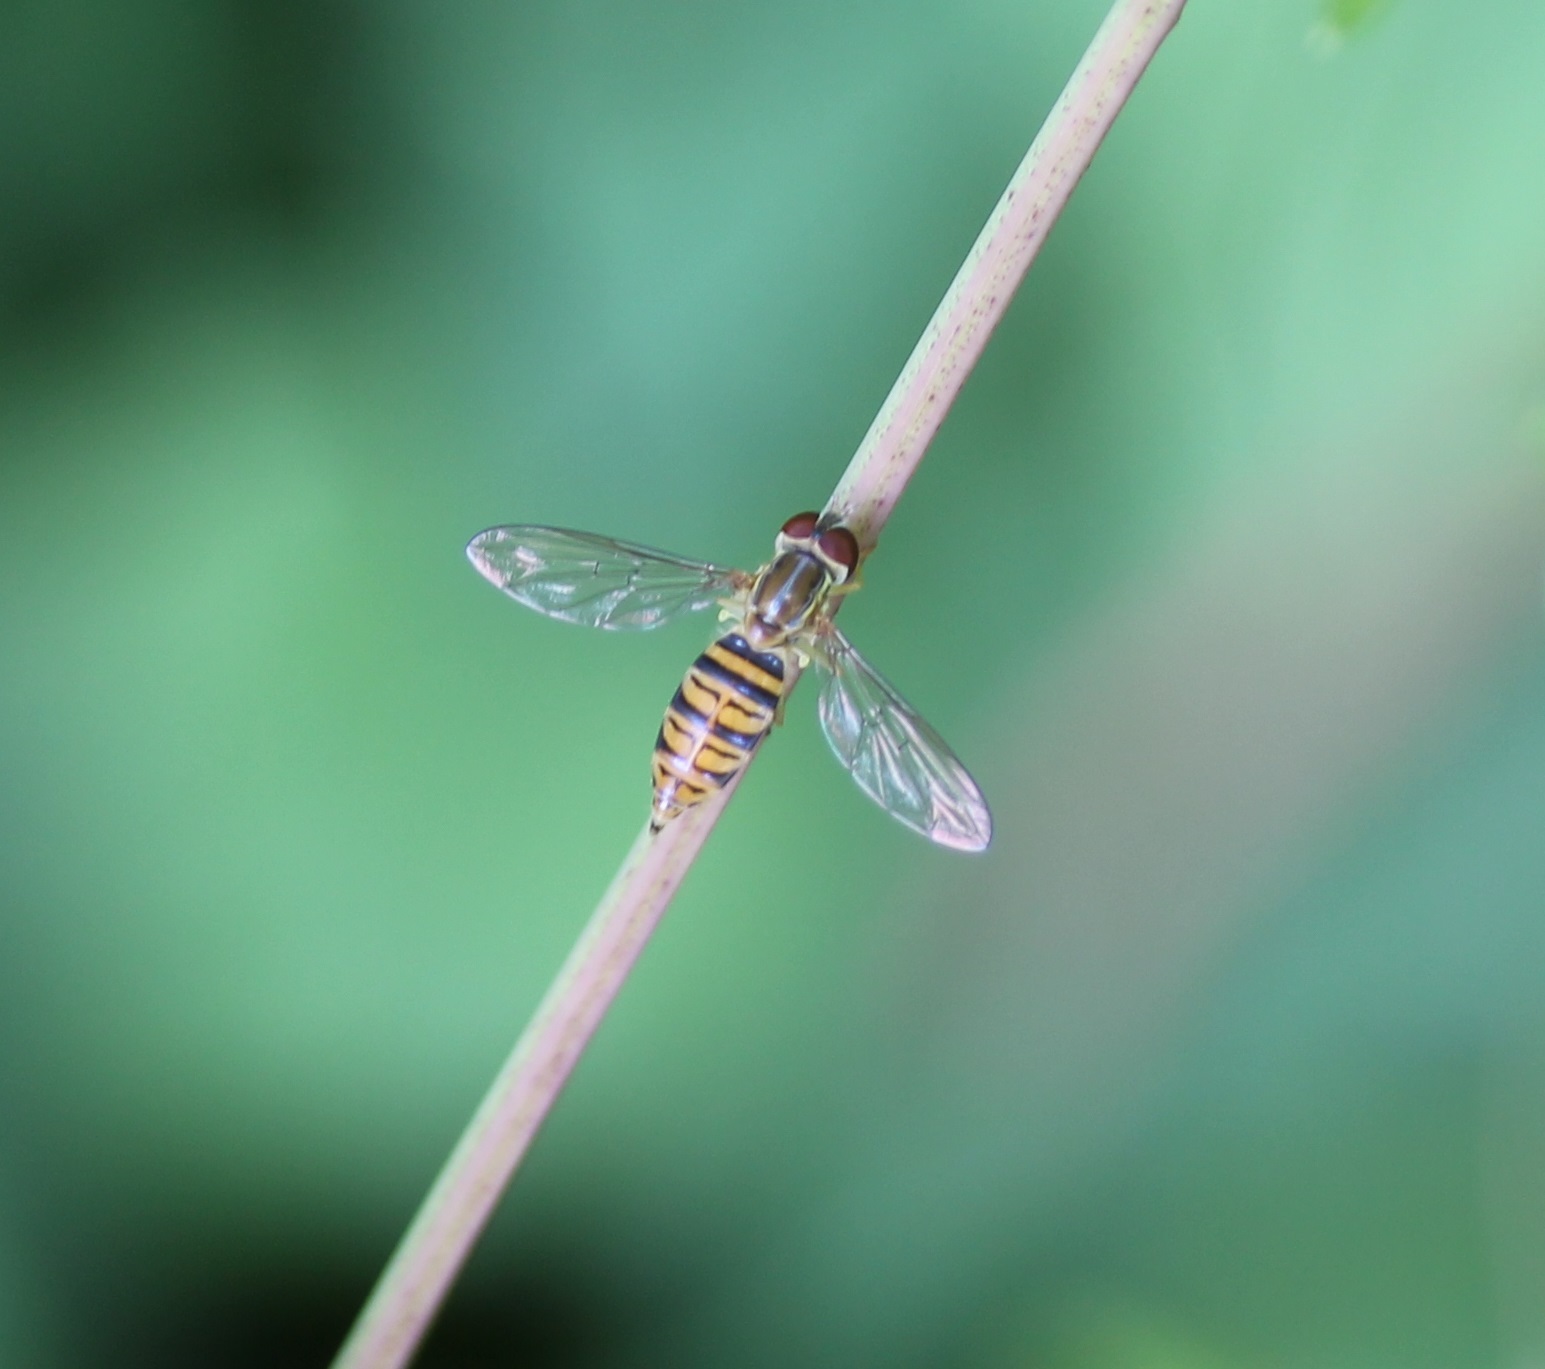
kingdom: Animalia
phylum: Arthropoda
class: Insecta
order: Diptera
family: Syrphidae
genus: Toxomerus
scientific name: Toxomerus politus
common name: Maize calligrapher
